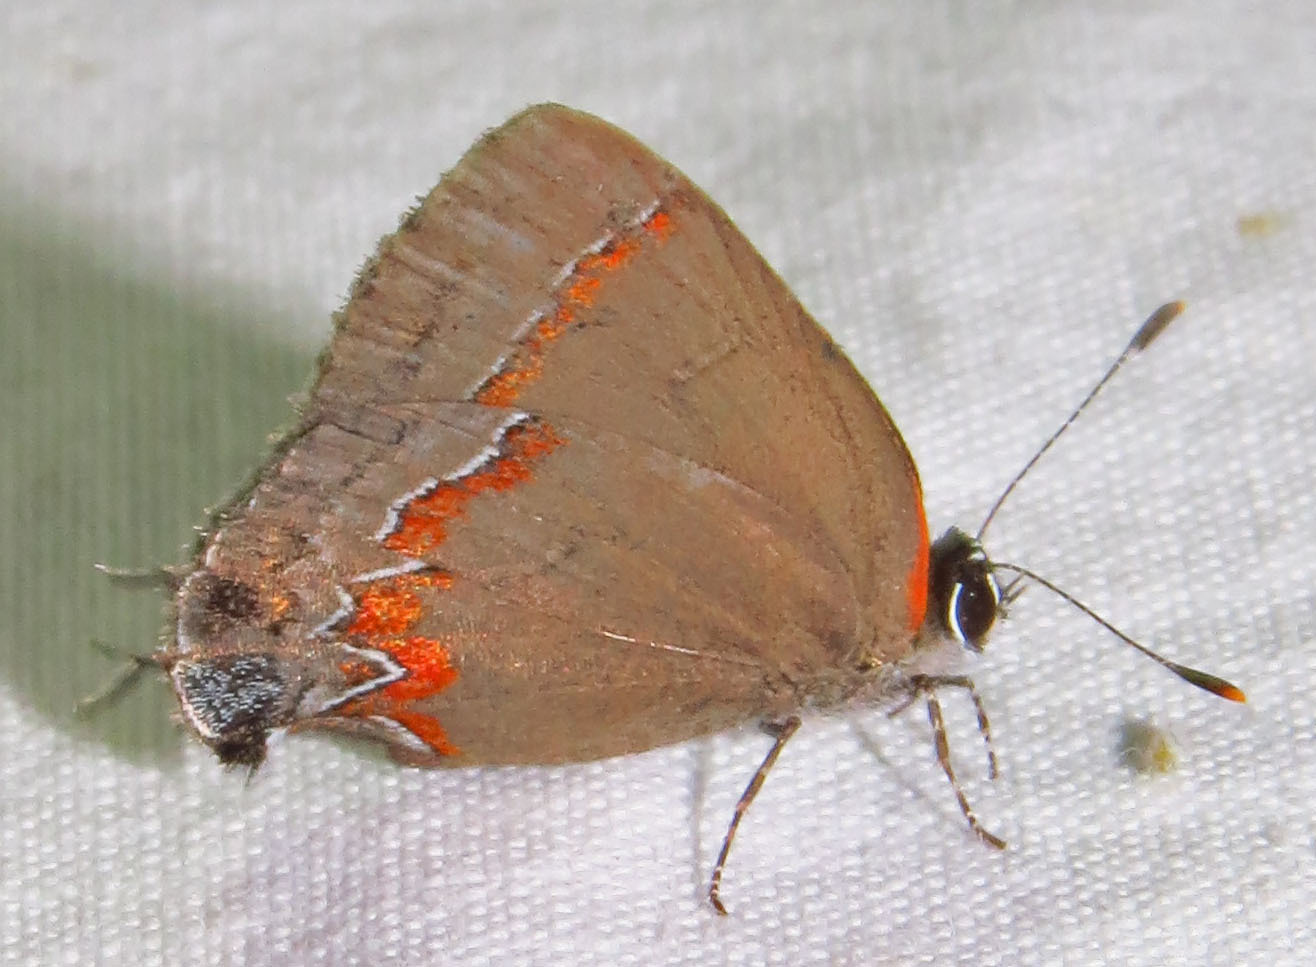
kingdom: Animalia
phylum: Arthropoda
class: Insecta
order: Lepidoptera
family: Lycaenidae
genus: Calycopis
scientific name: Calycopis cecrops
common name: Red-banded hairstreak
